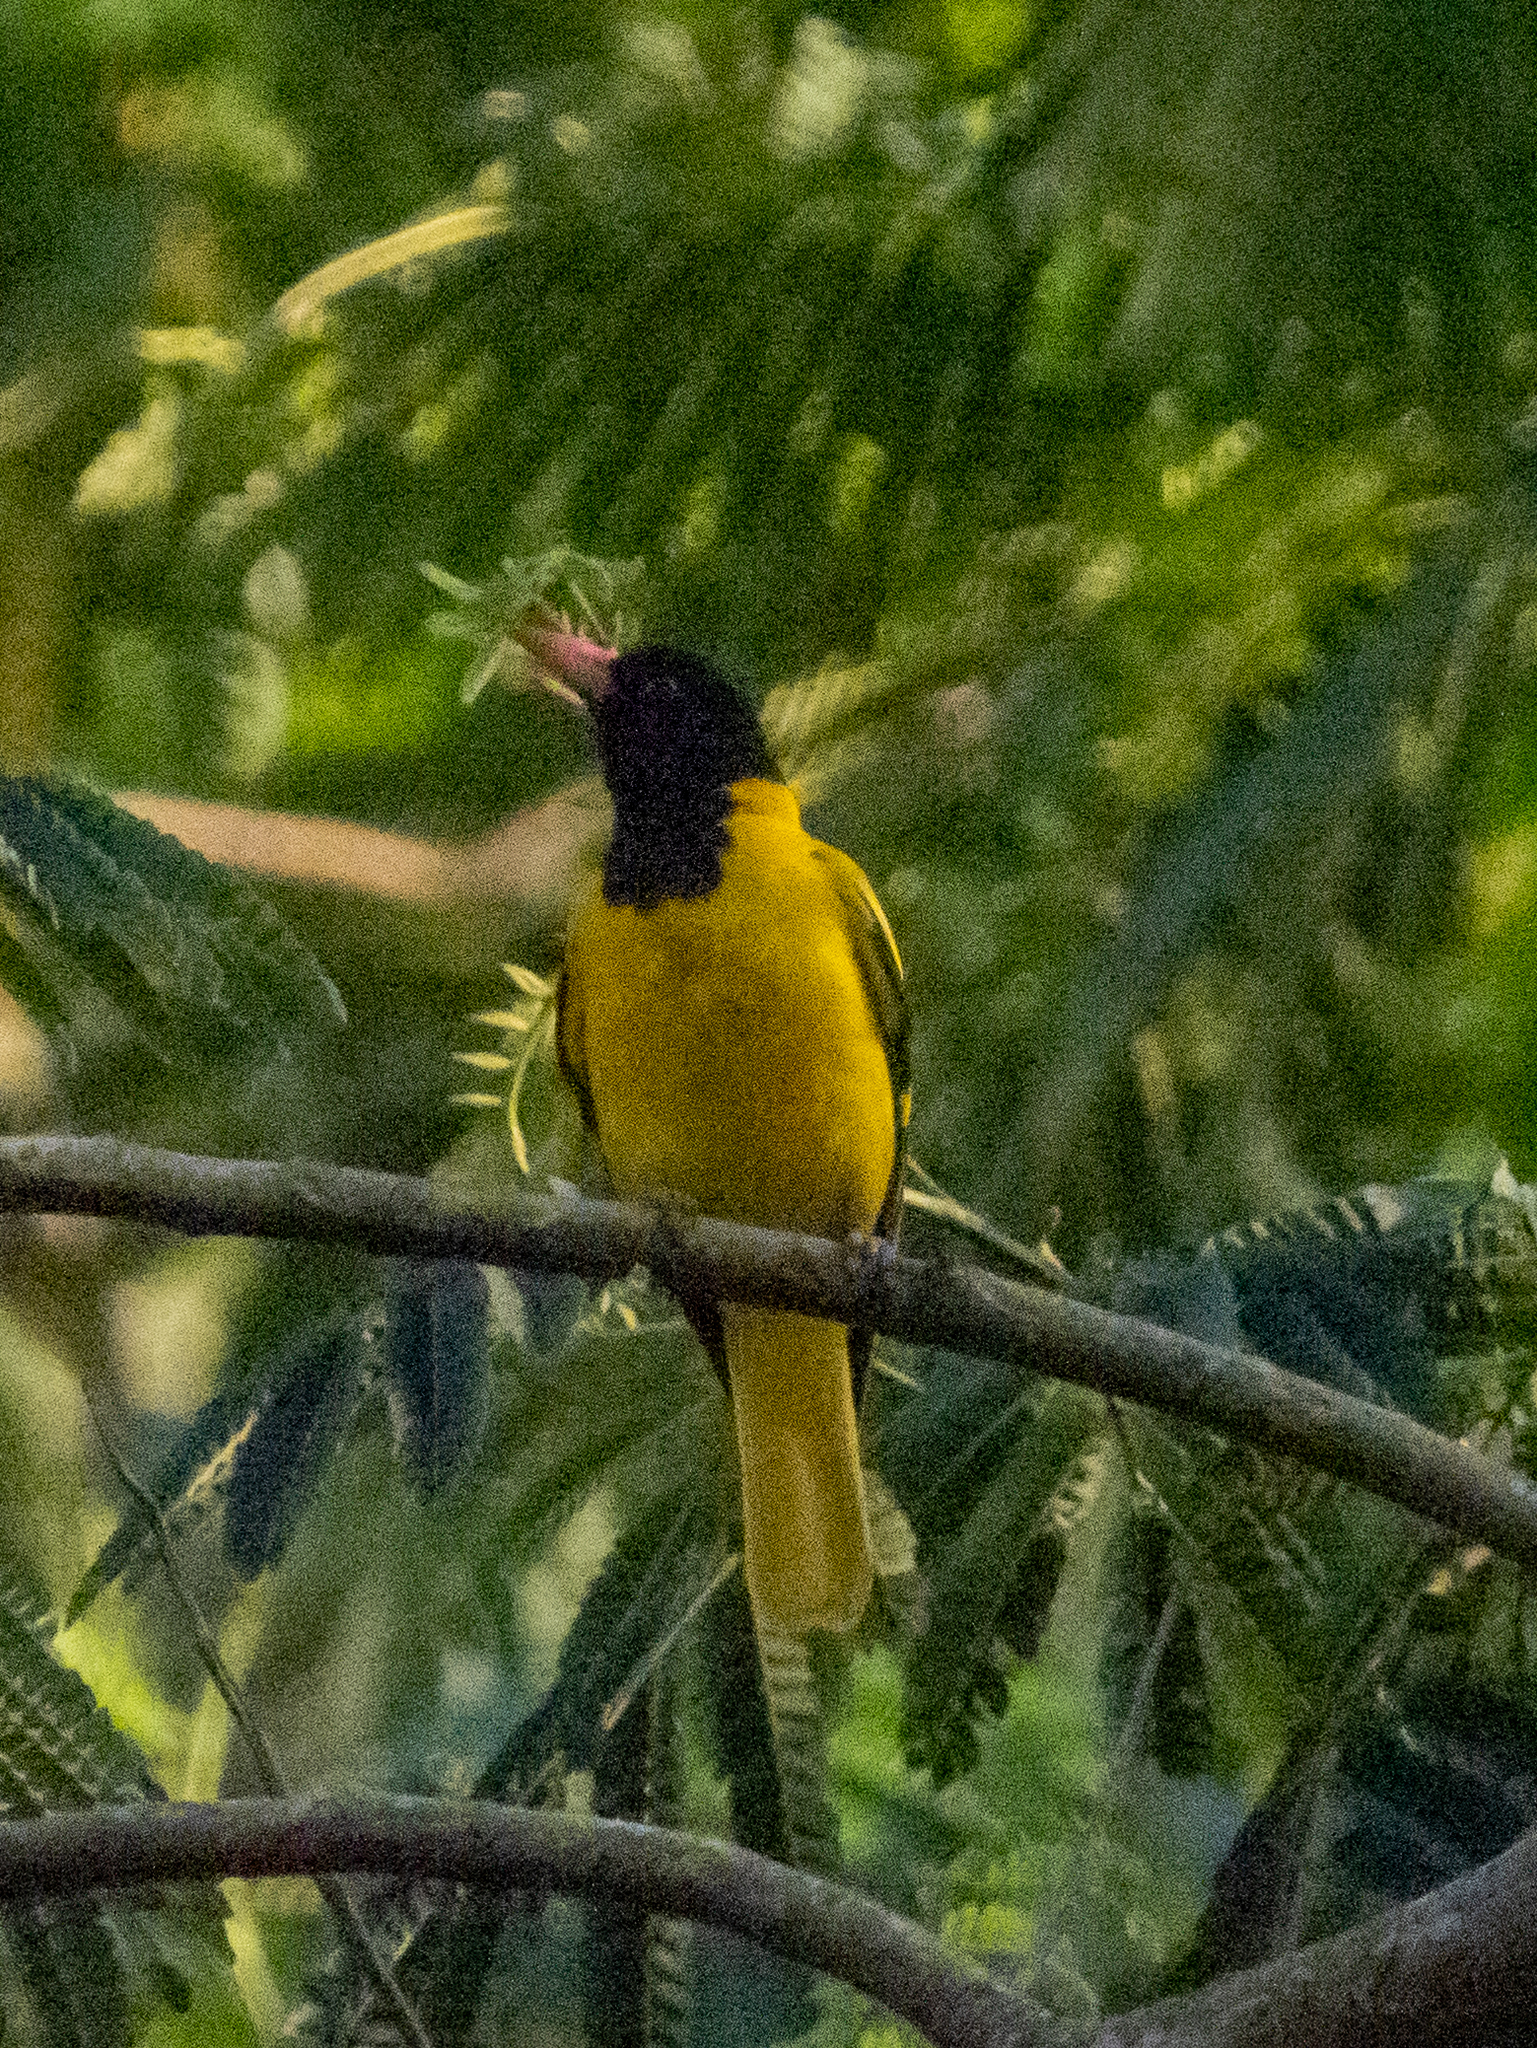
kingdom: Animalia
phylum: Chordata
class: Aves
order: Passeriformes
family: Oriolidae
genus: Oriolus
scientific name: Oriolus xanthornus
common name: Black-hooded oriole
